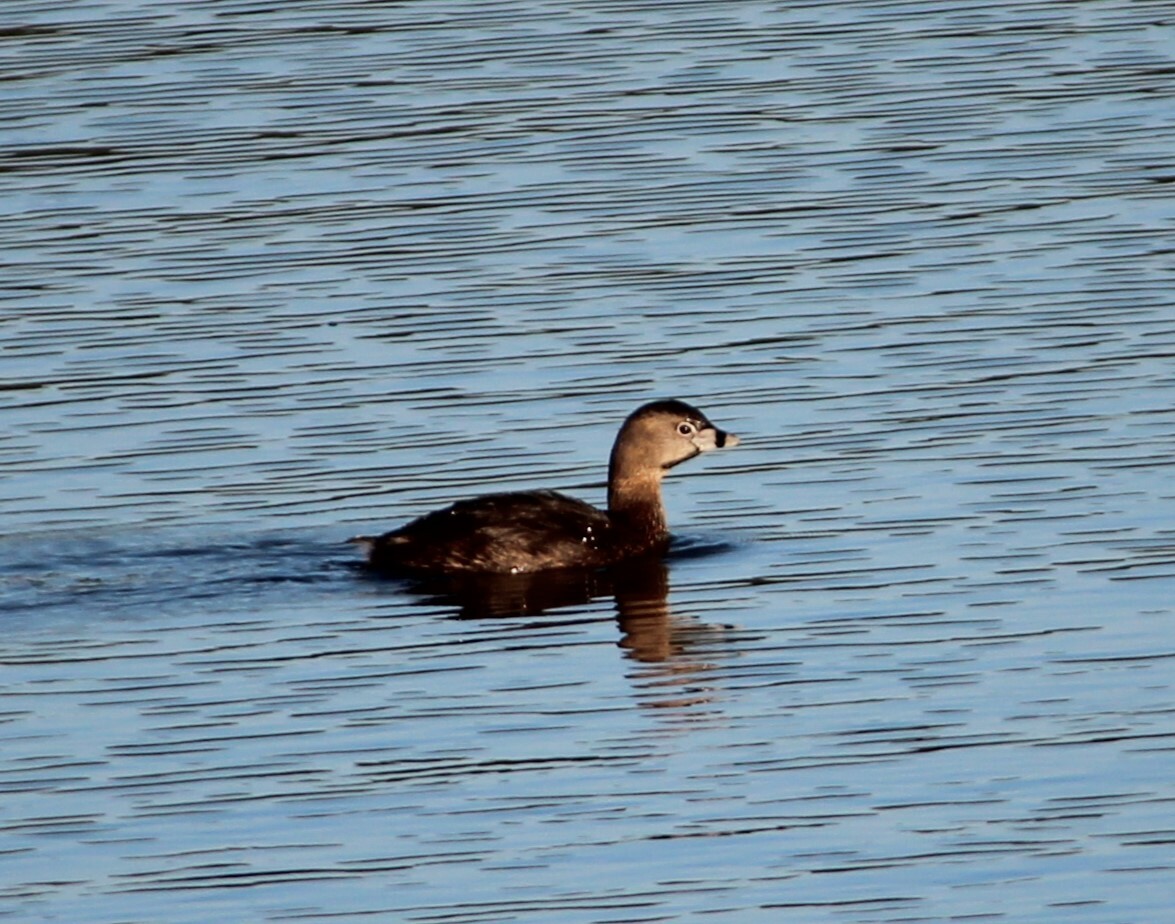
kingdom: Animalia
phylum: Chordata
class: Aves
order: Podicipediformes
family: Podicipedidae
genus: Podilymbus
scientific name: Podilymbus podiceps
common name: Pied-billed grebe
